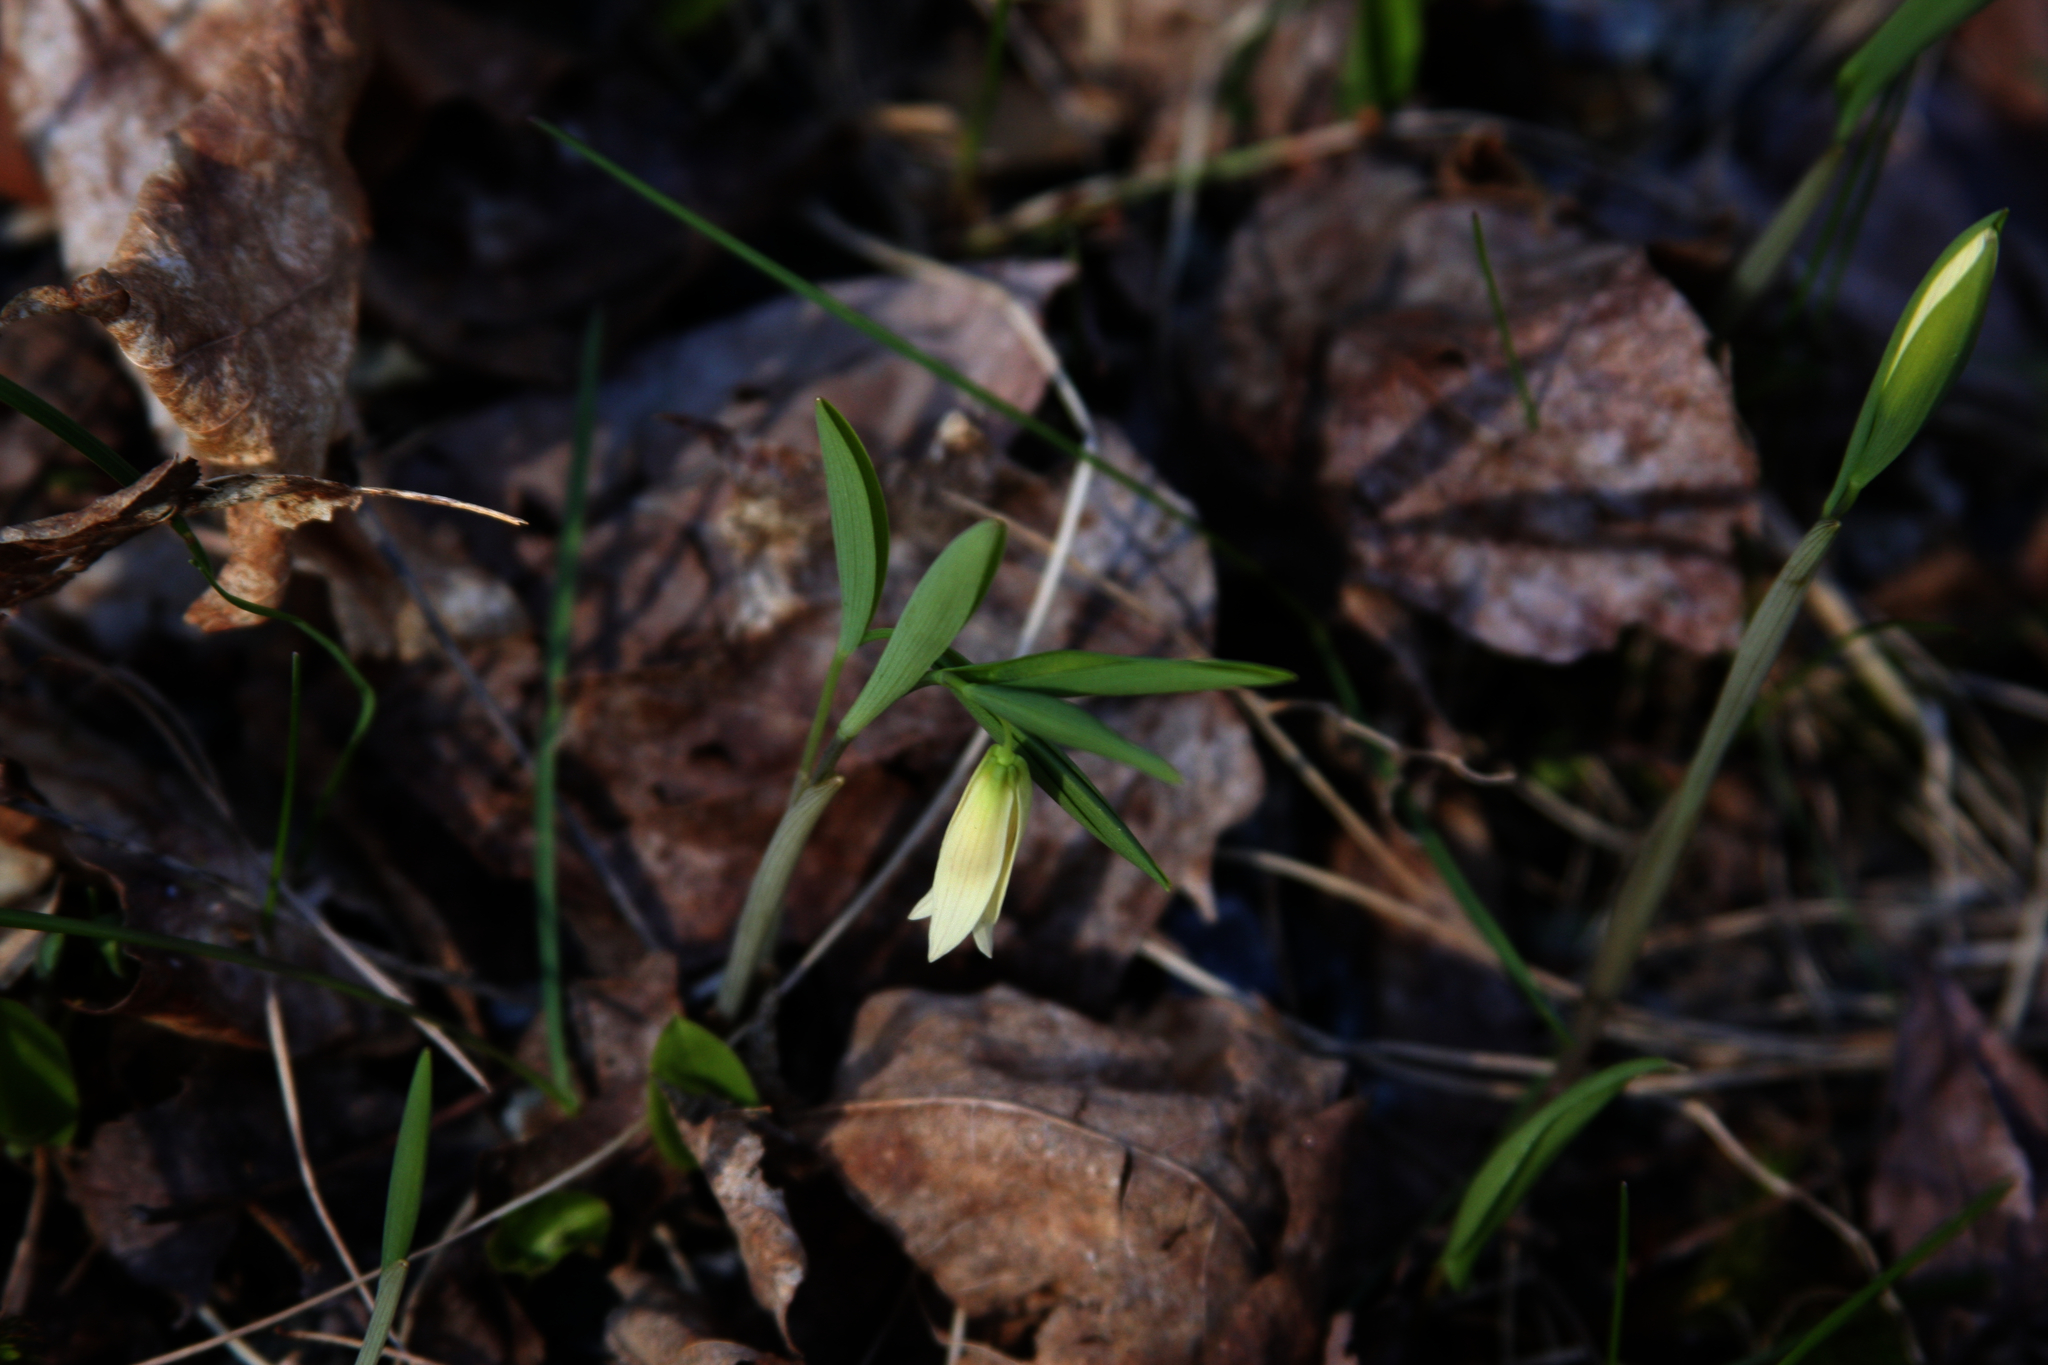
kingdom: Plantae
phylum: Tracheophyta
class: Liliopsida
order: Liliales
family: Colchicaceae
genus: Uvularia
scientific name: Uvularia sessilifolia
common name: Straw-lily
